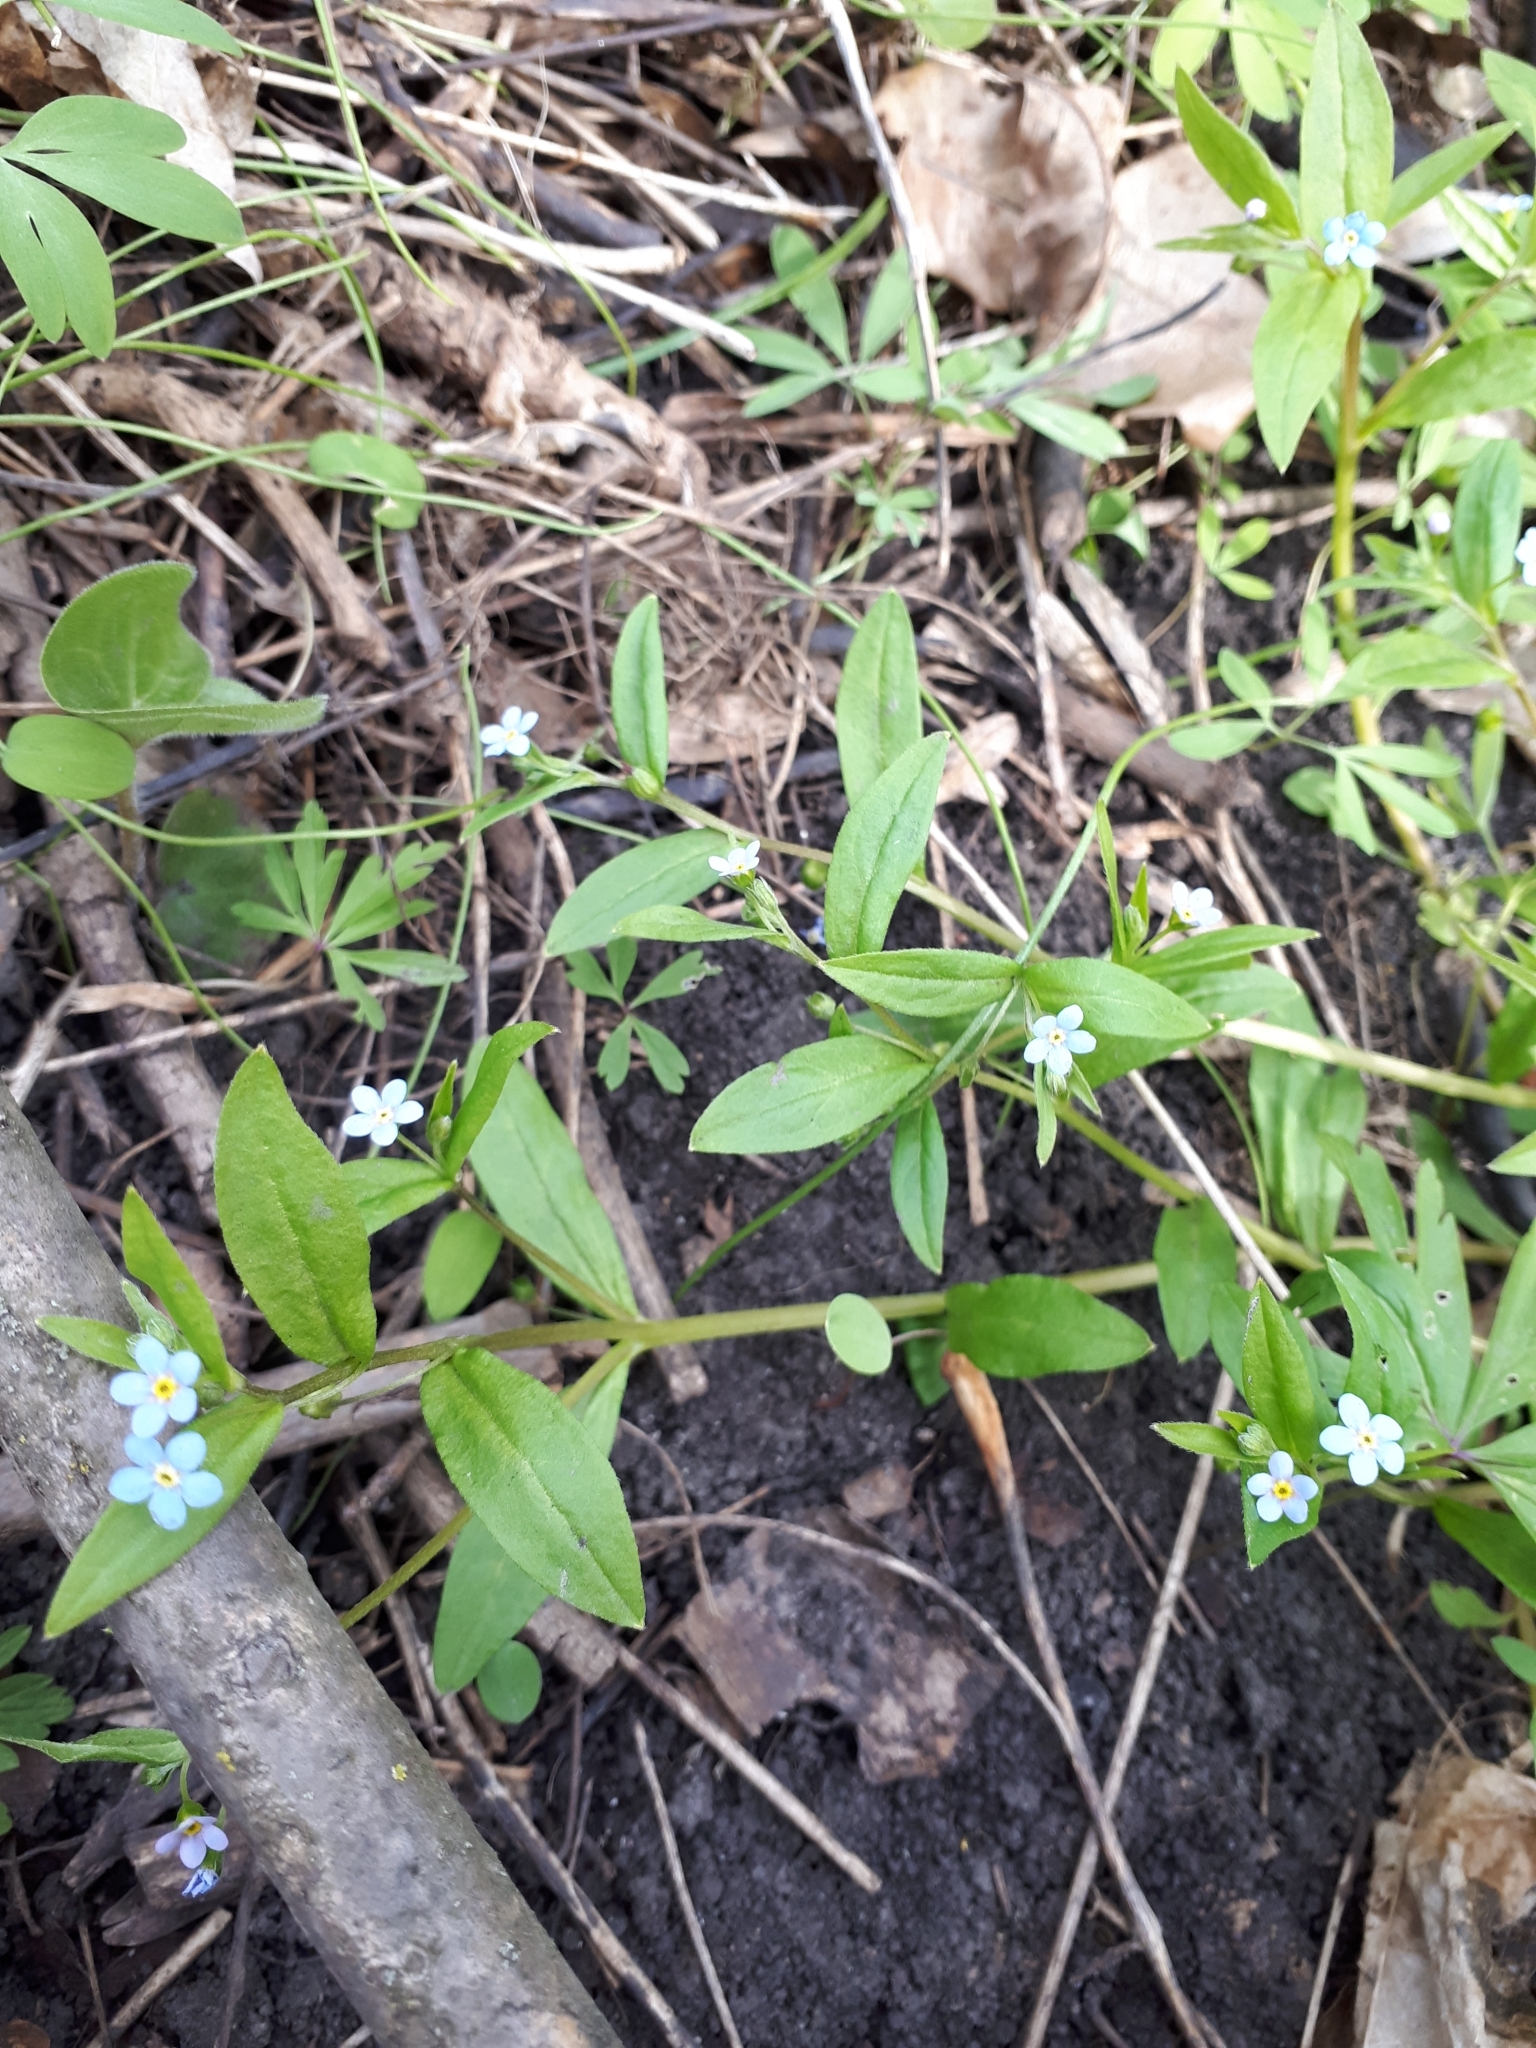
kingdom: Plantae
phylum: Tracheophyta
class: Magnoliopsida
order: Boraginales
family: Boraginaceae
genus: Memoremea
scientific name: Memoremea scorpioides
